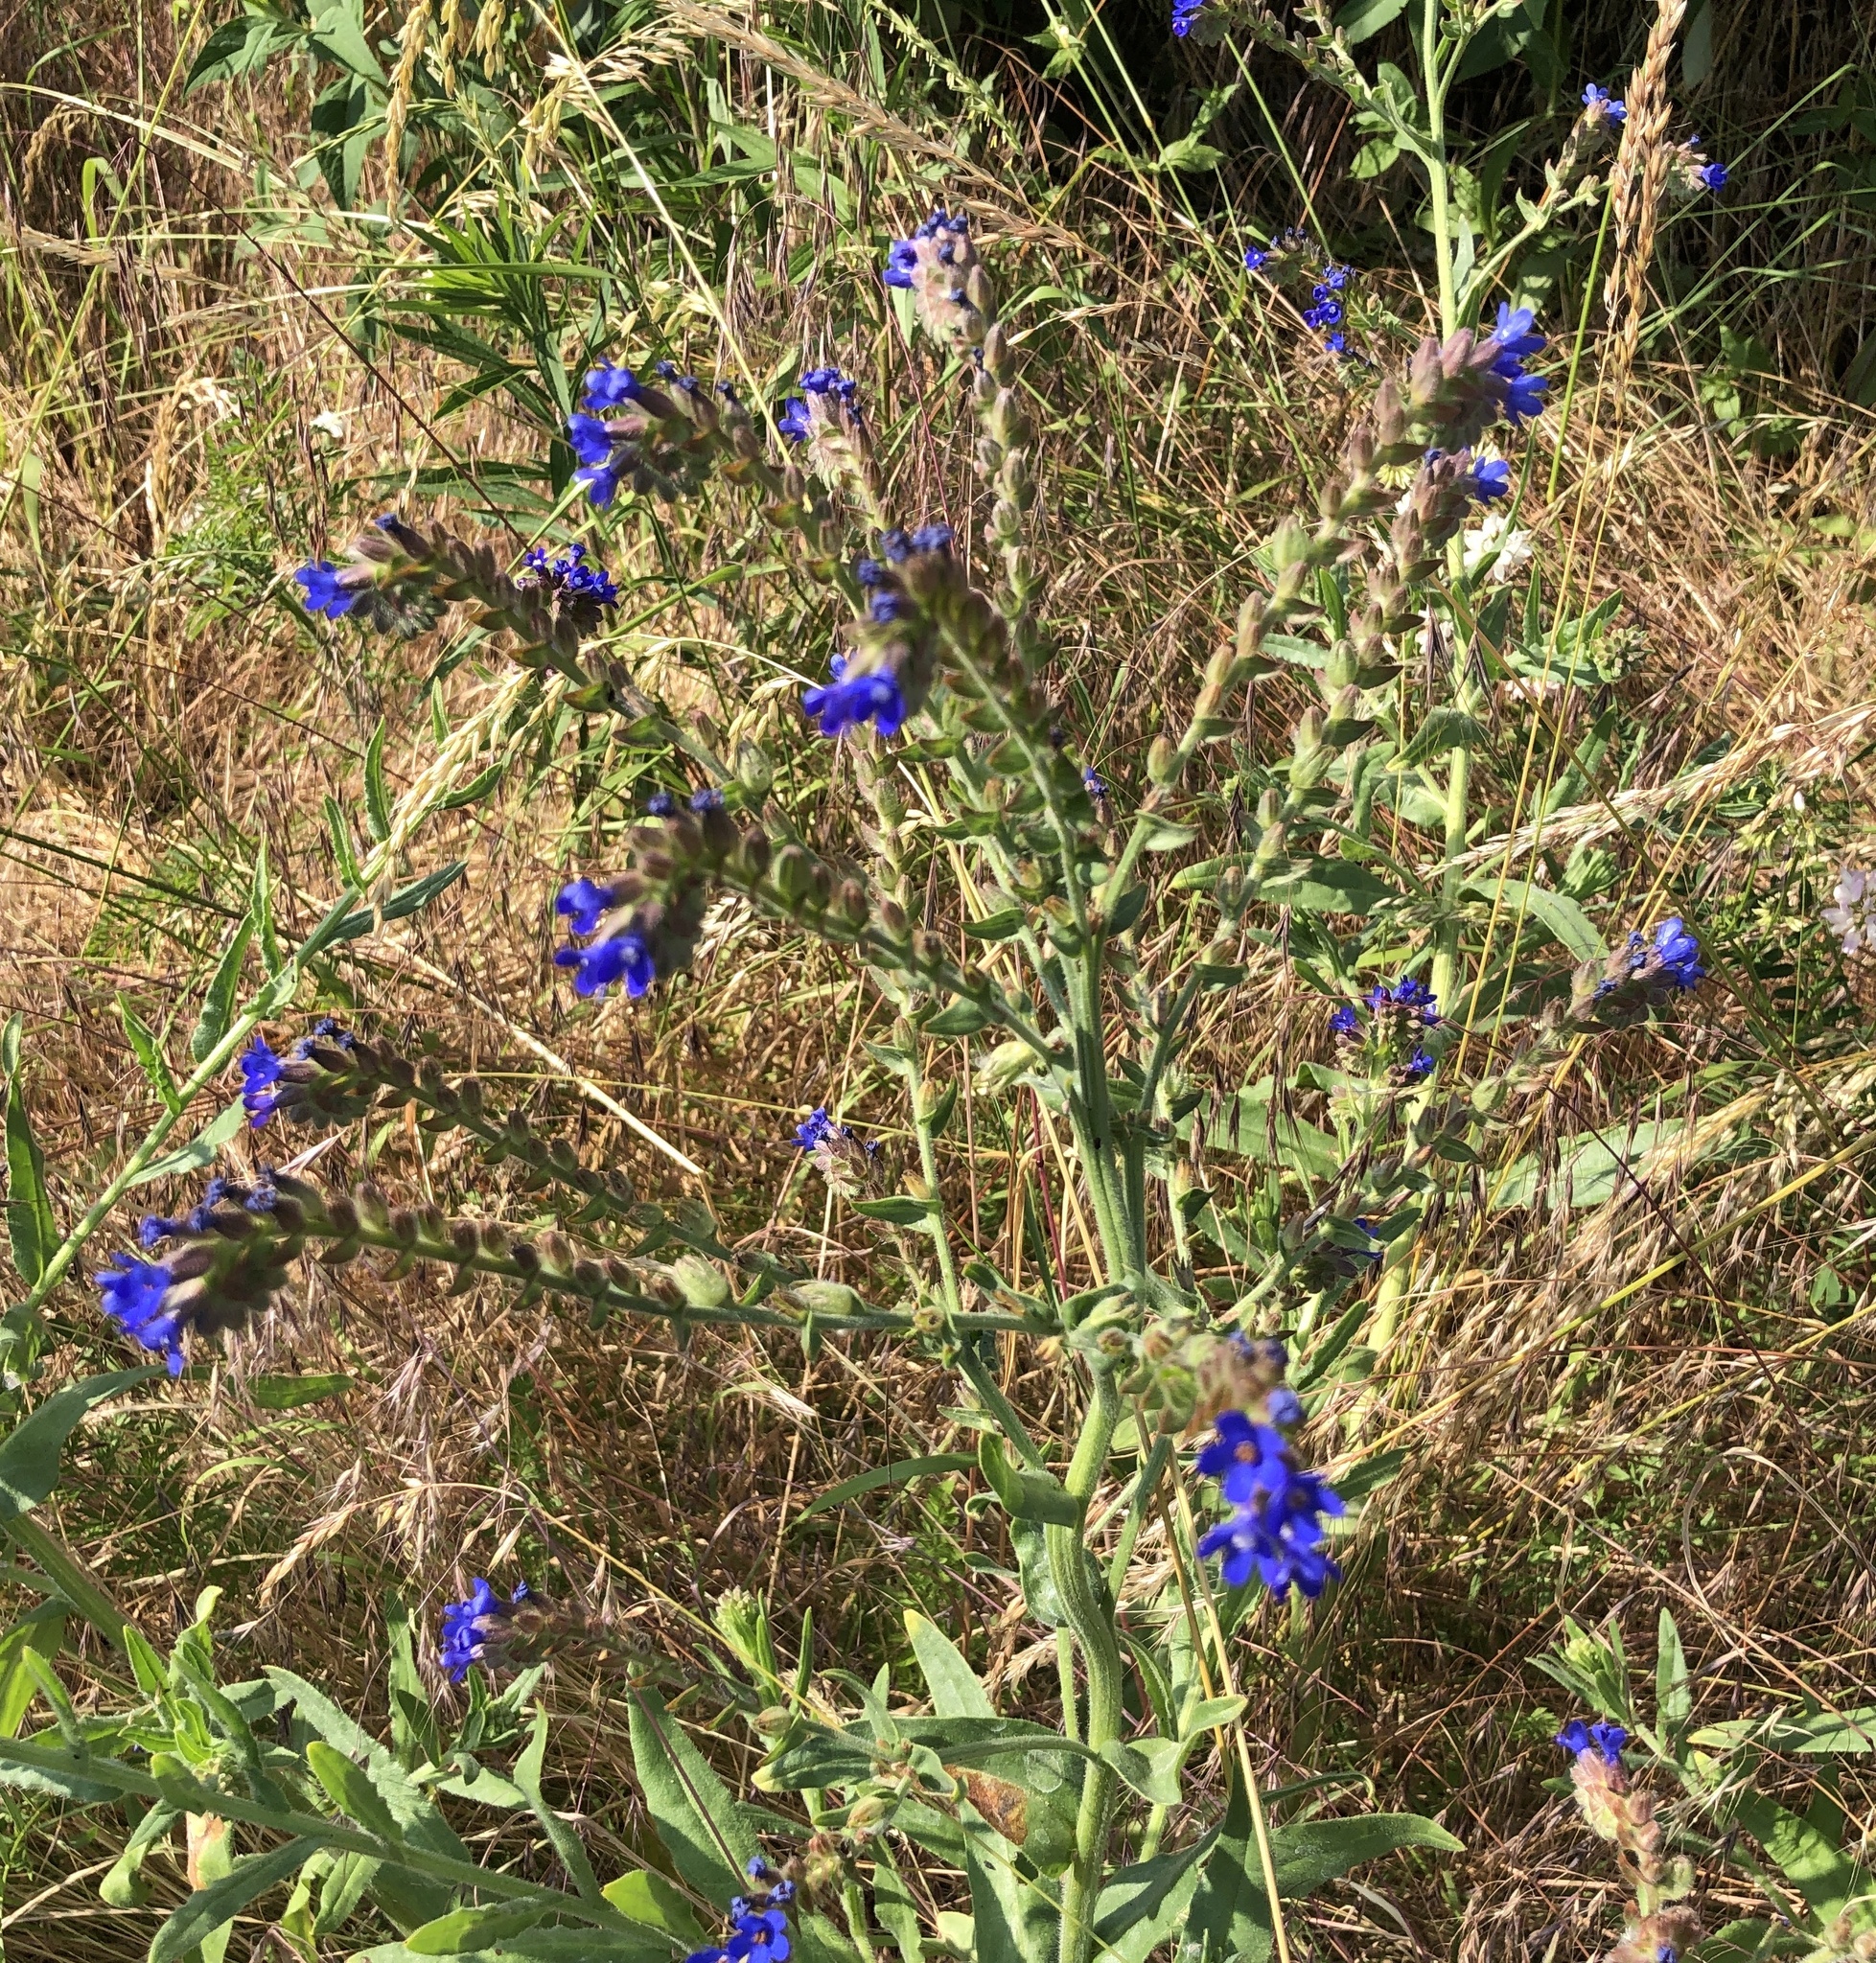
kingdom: Plantae
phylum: Tracheophyta
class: Magnoliopsida
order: Boraginales
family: Boraginaceae
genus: Anchusa
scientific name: Anchusa officinalis
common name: Alkanet
